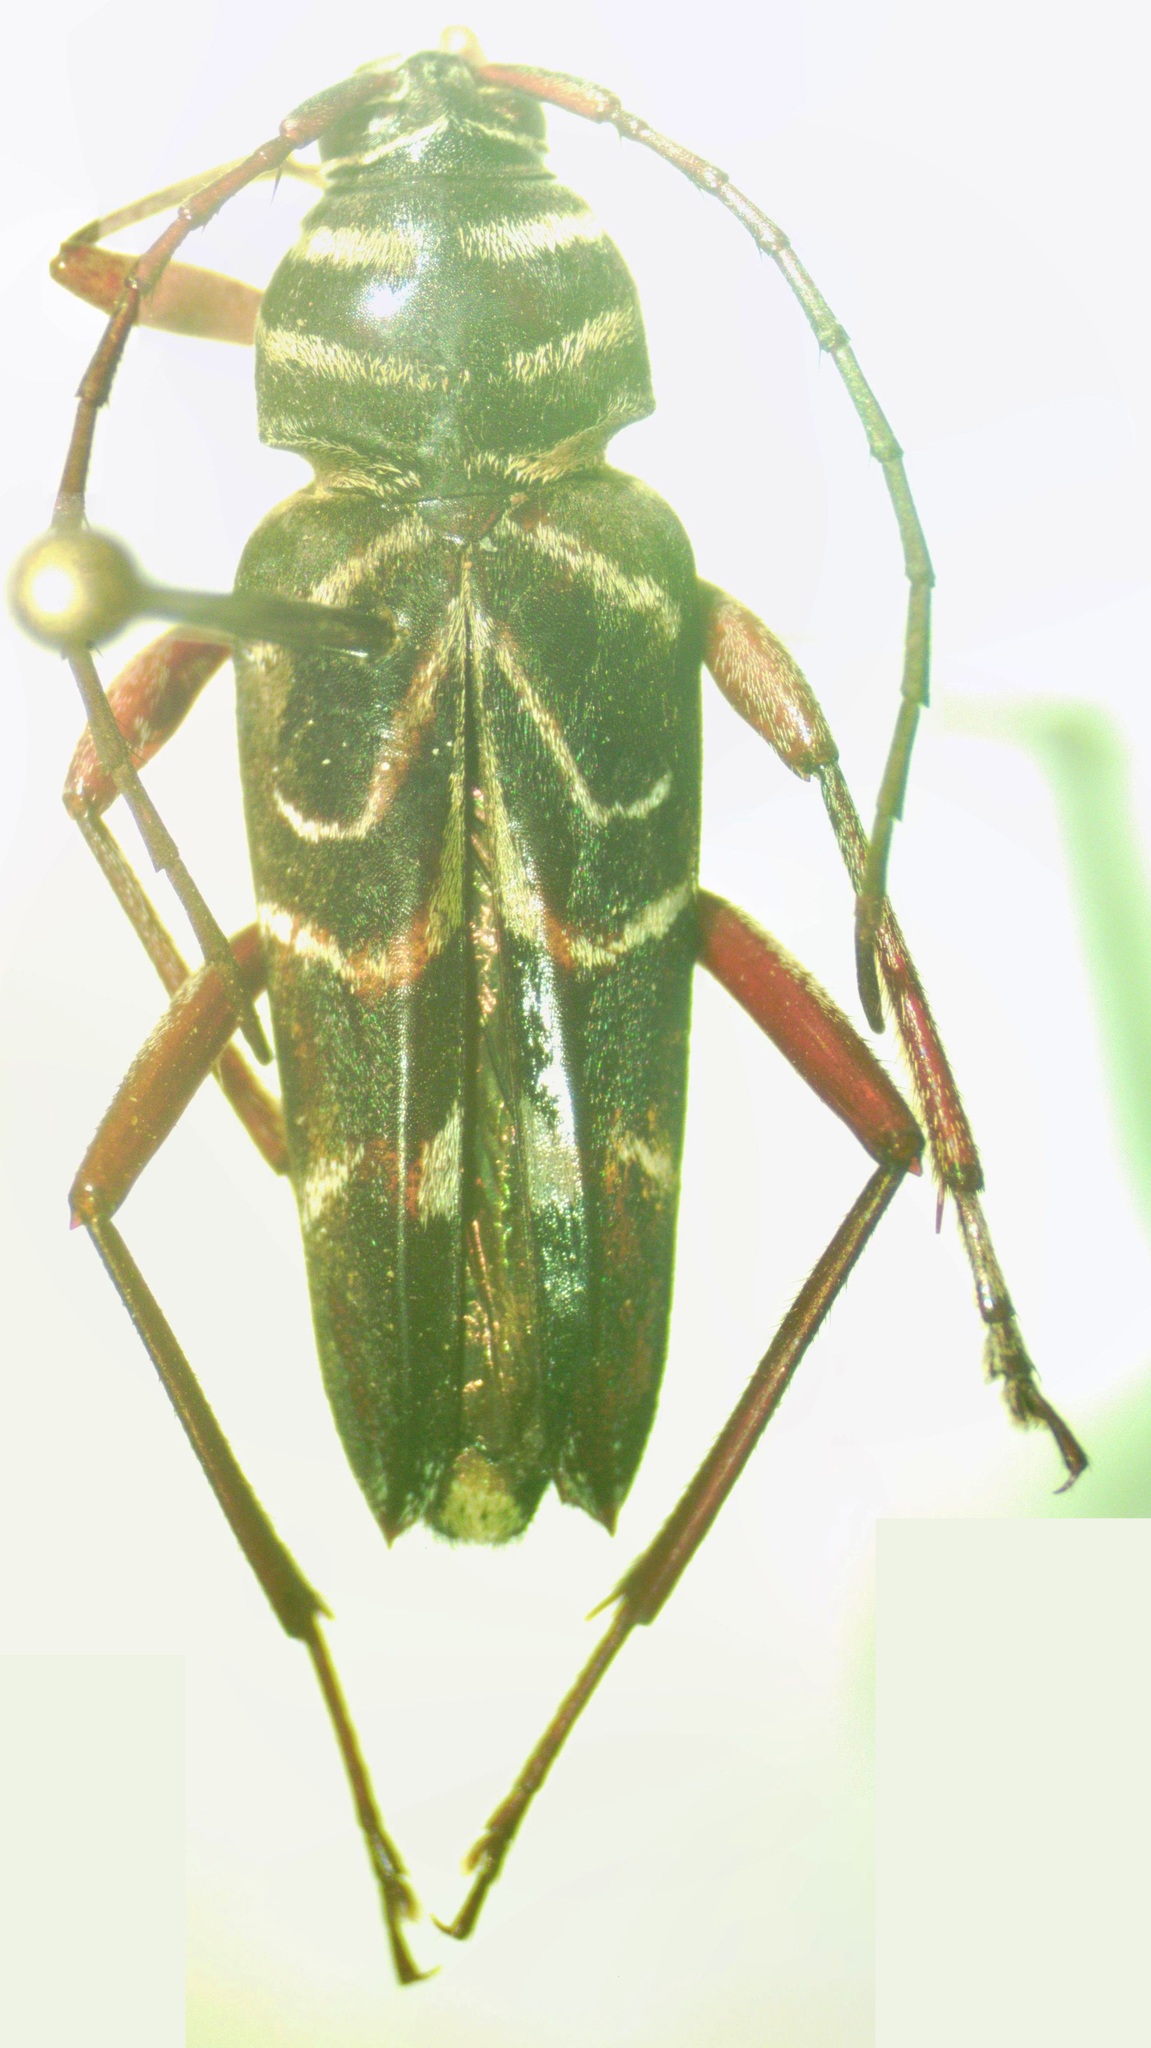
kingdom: Animalia
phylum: Arthropoda
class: Insecta
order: Coleoptera
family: Cerambycidae
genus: Megacyllene
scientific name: Megacyllene angulata
